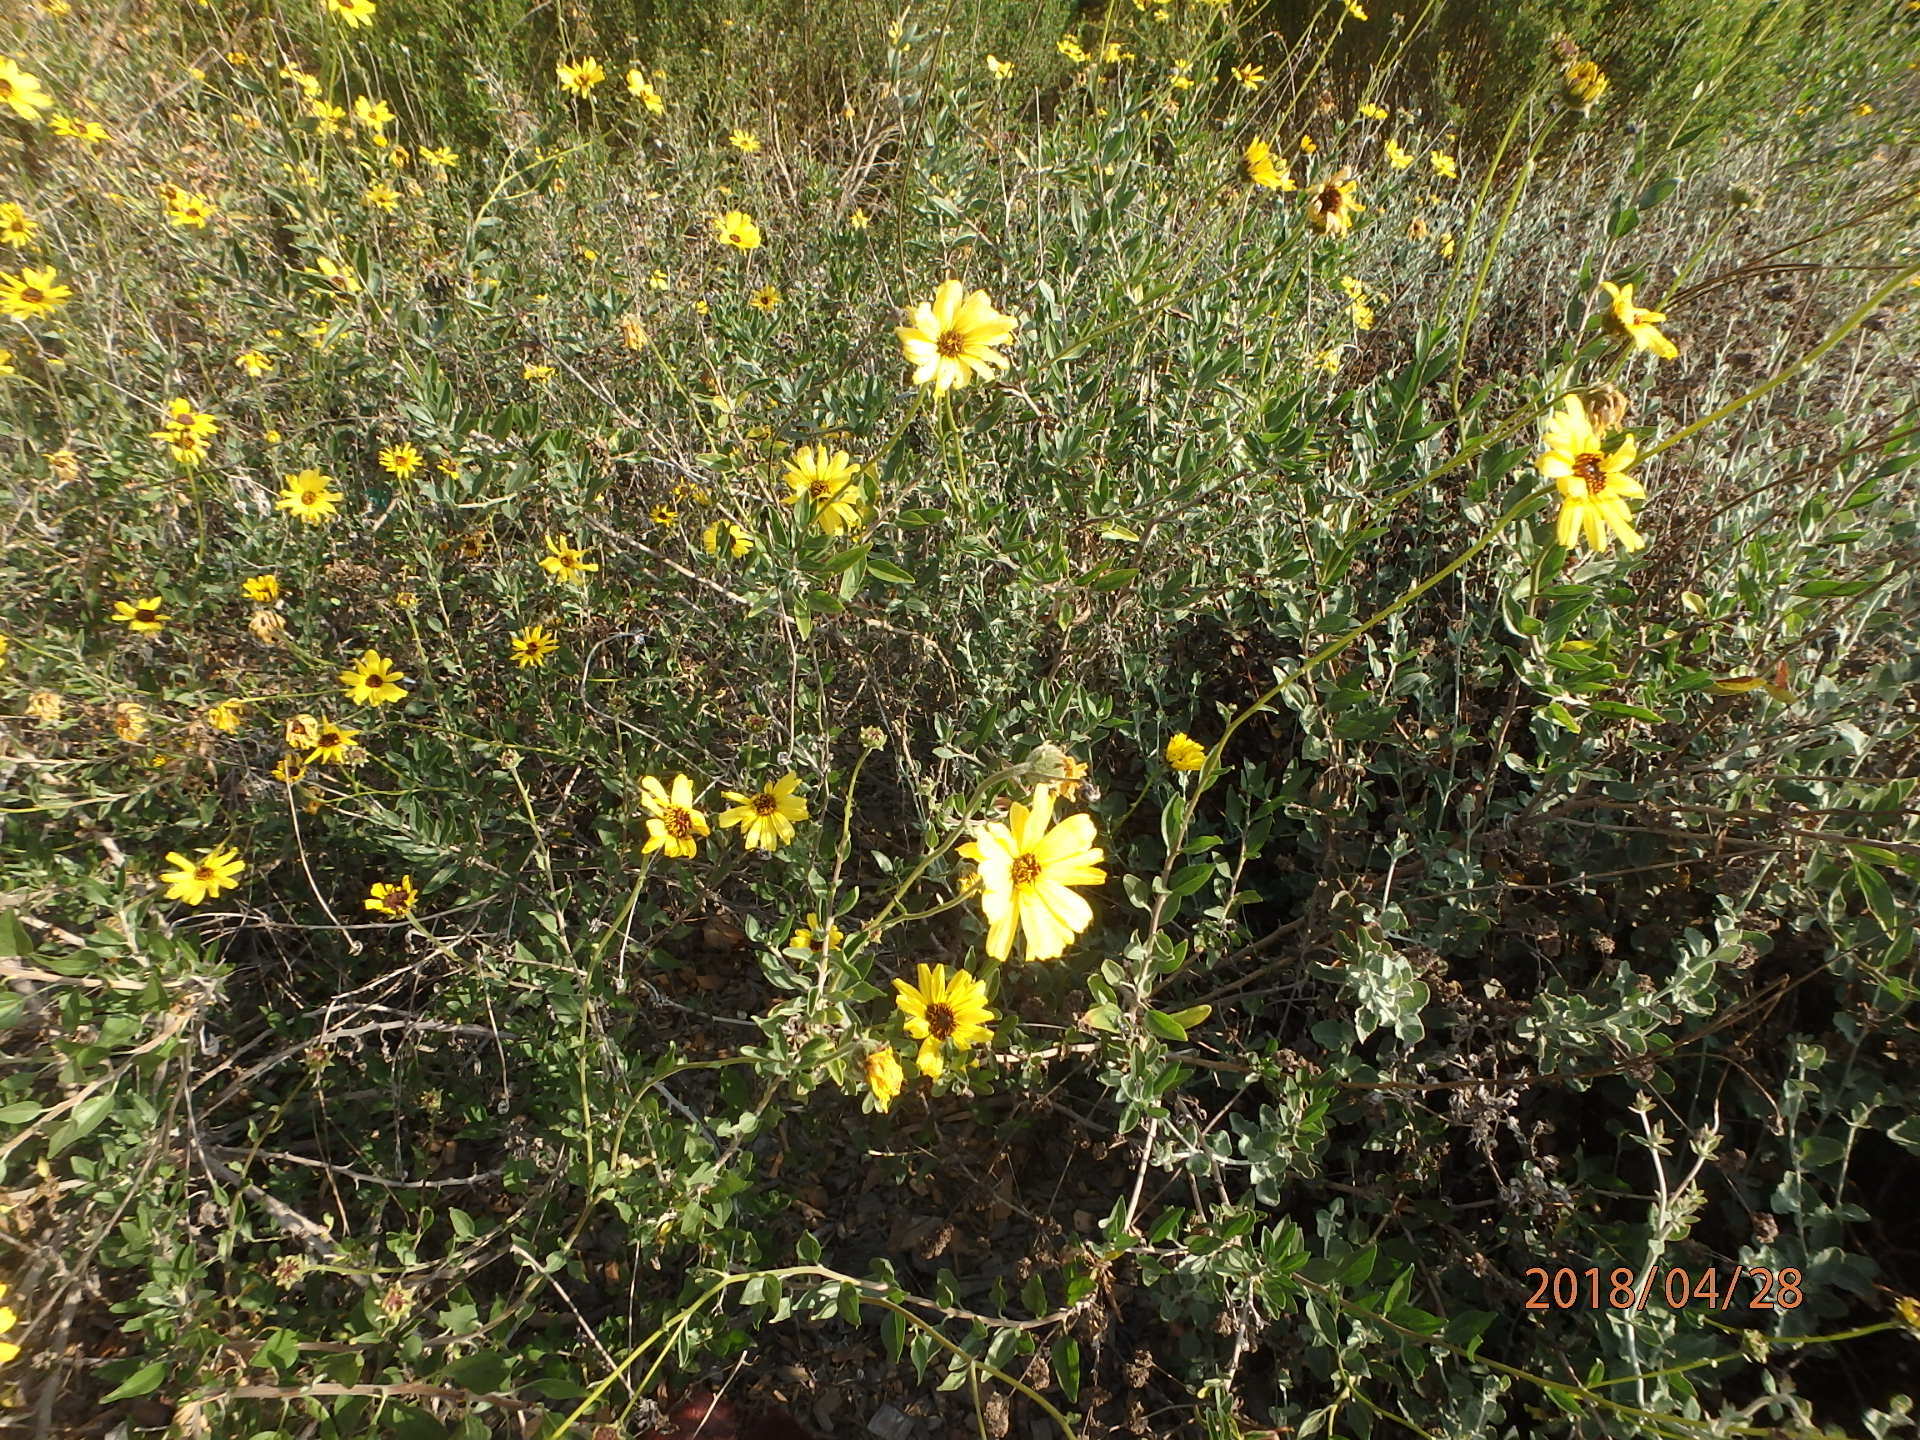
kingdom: Plantae
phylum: Tracheophyta
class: Magnoliopsida
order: Asterales
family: Asteraceae
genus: Encelia
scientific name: Encelia californica
